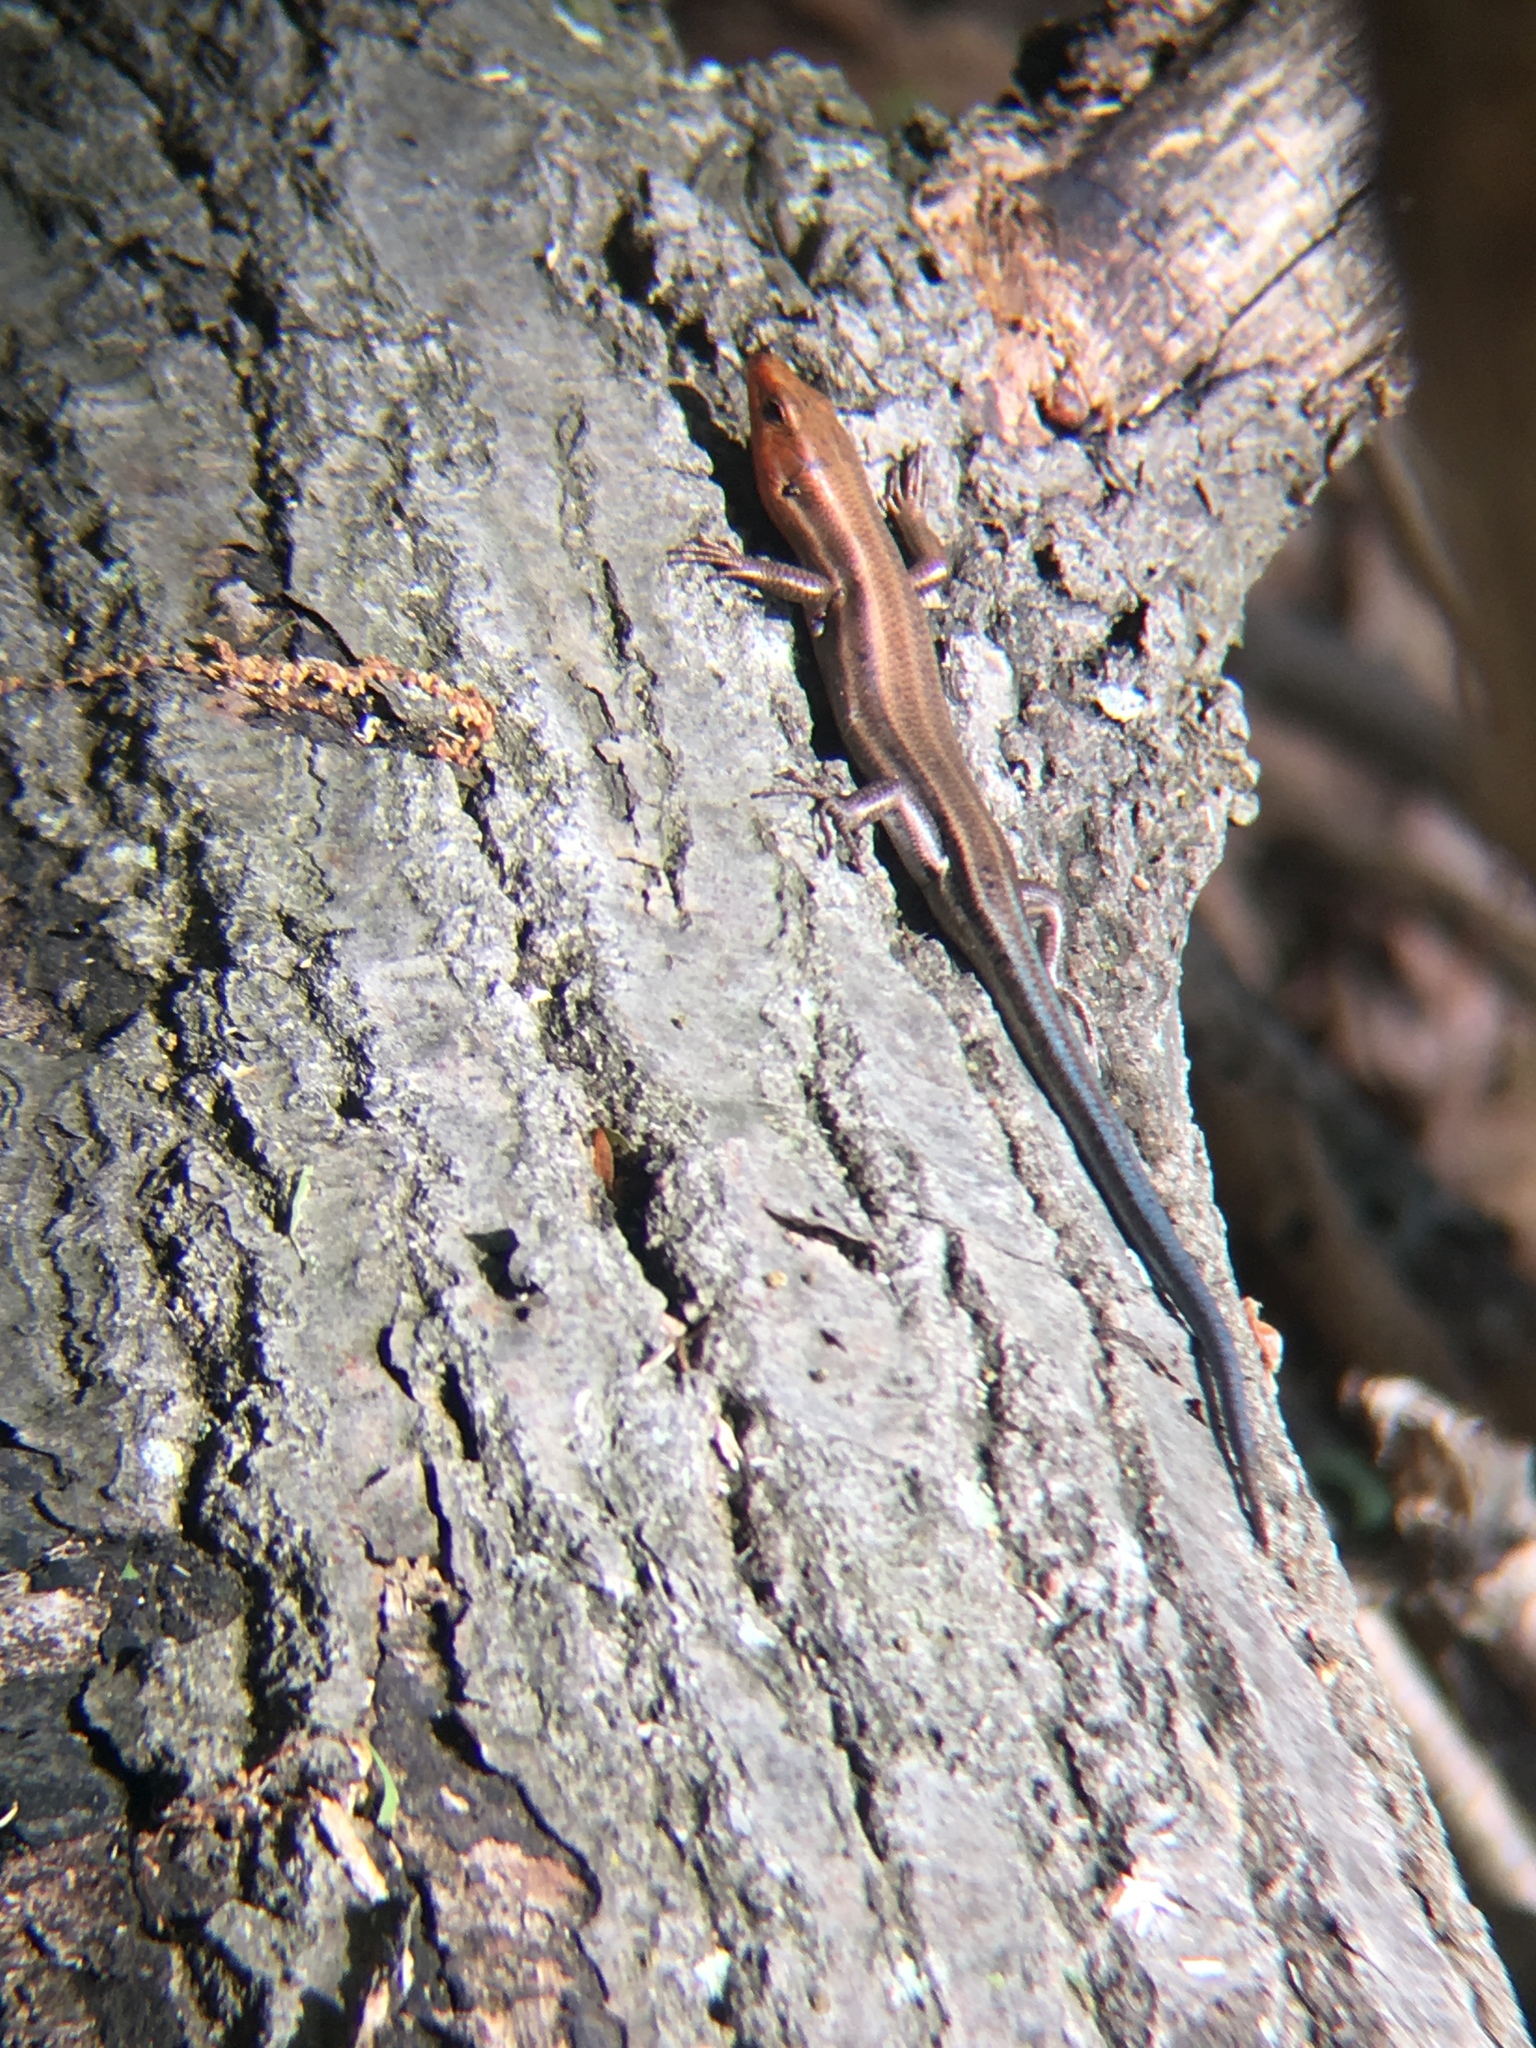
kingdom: Animalia
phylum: Chordata
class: Squamata
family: Scincidae
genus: Plestiodon
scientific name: Plestiodon fasciatus
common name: Five-lined skink
